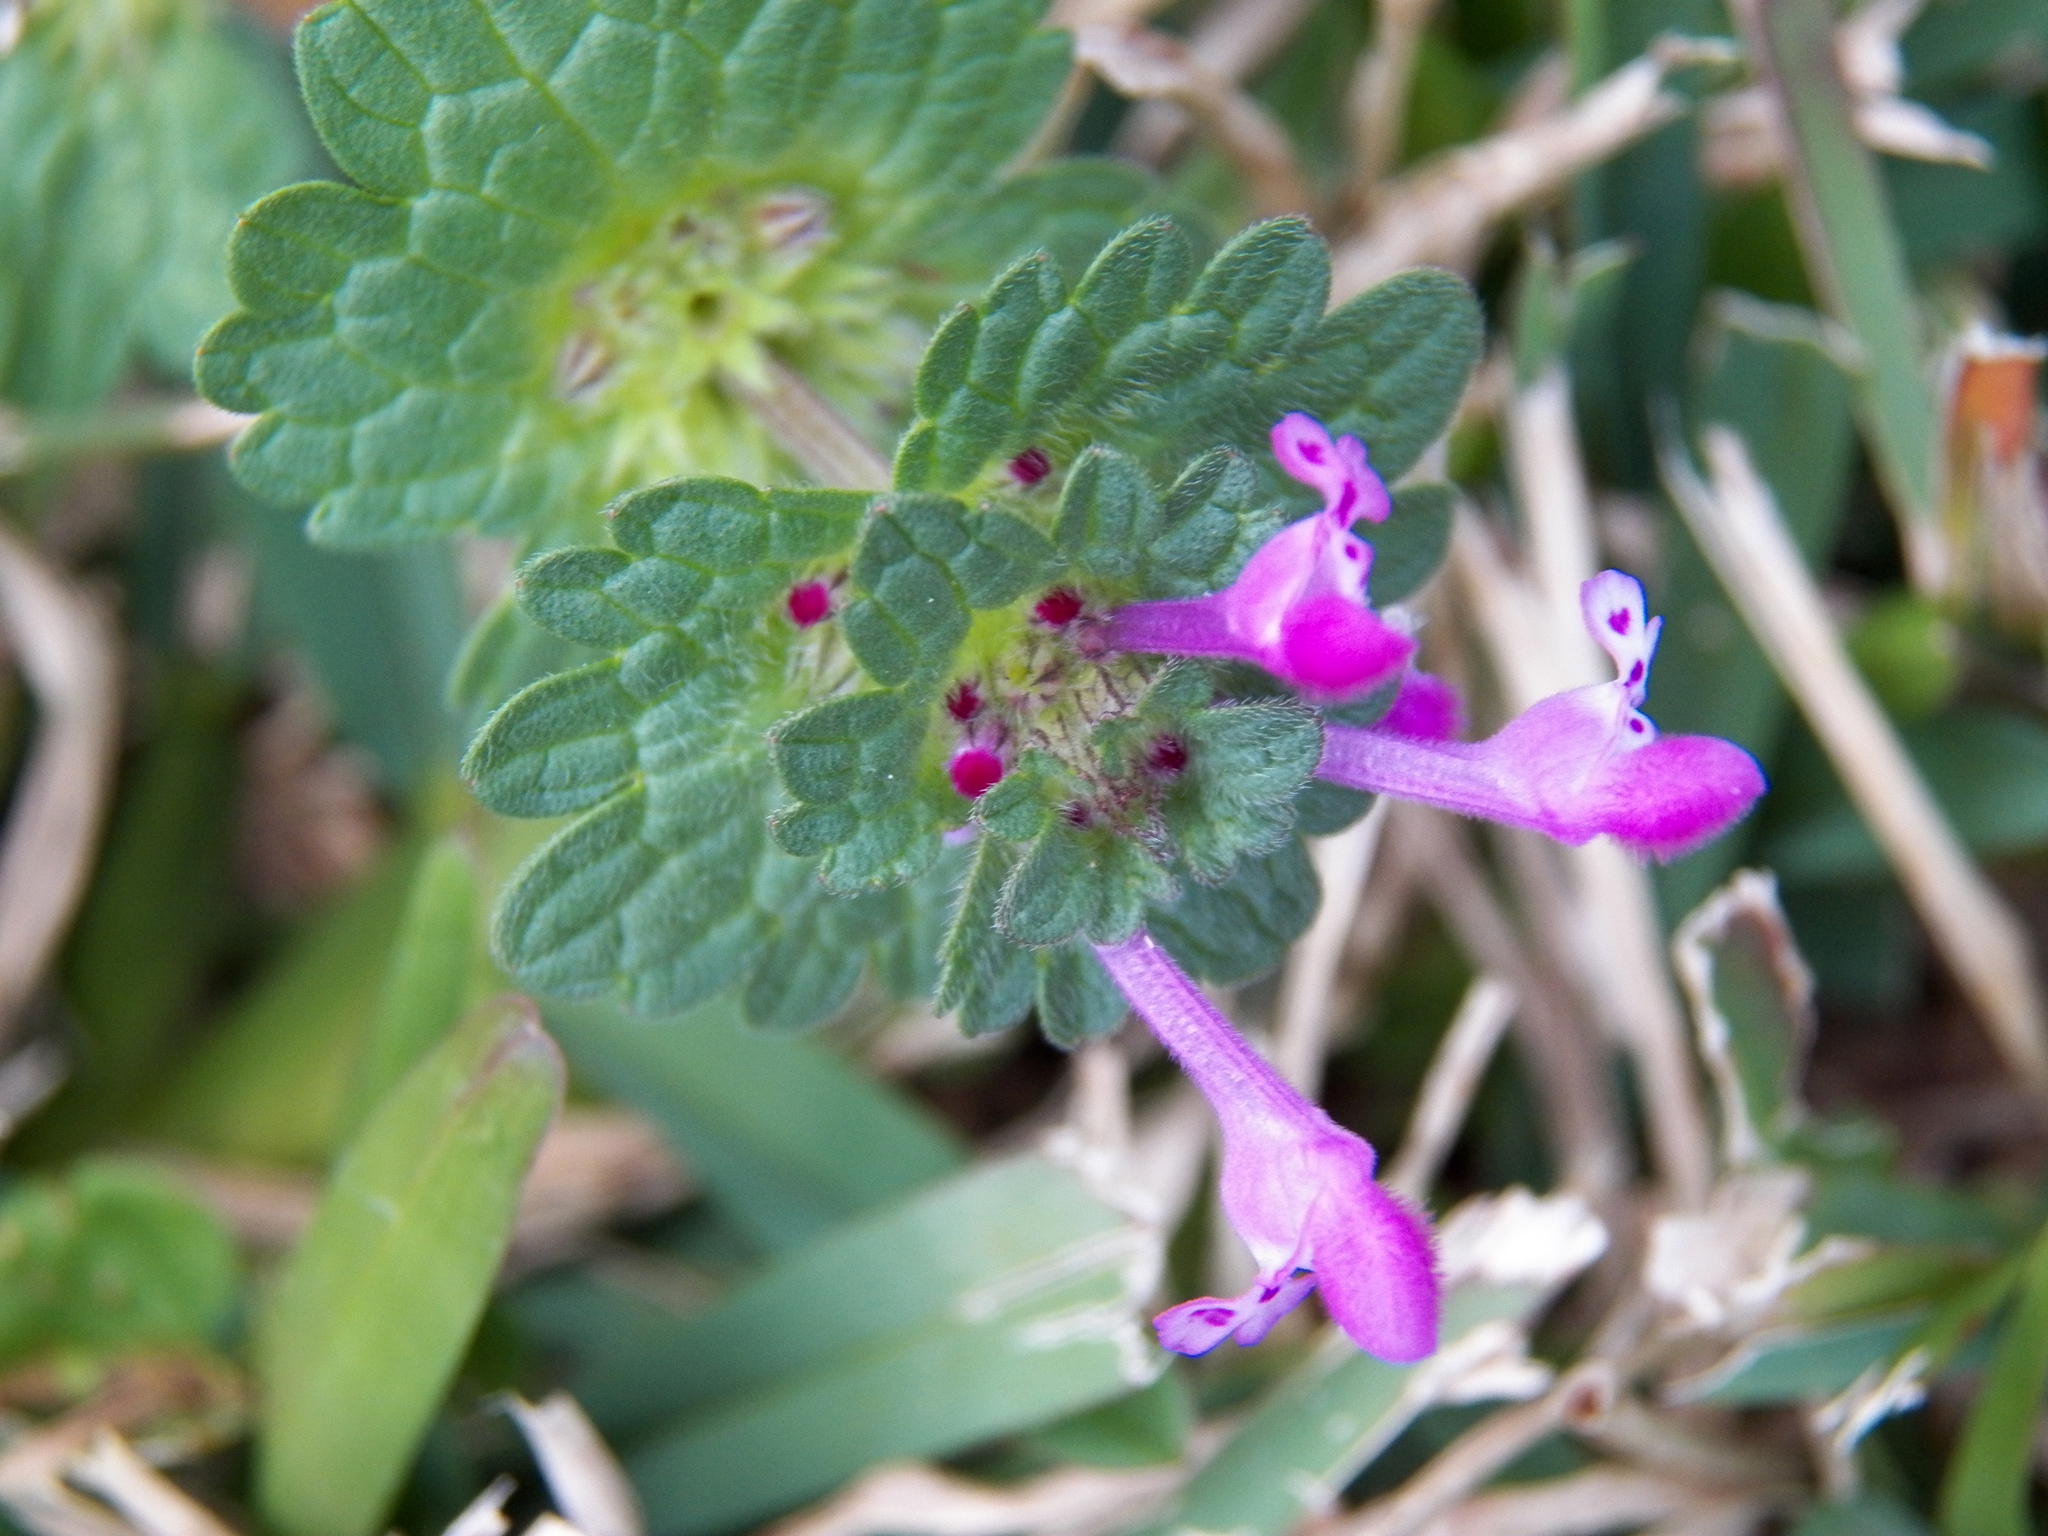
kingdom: Plantae
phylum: Tracheophyta
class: Magnoliopsida
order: Lamiales
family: Lamiaceae
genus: Lamium
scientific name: Lamium amplexicaule
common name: Henbit dead-nettle
